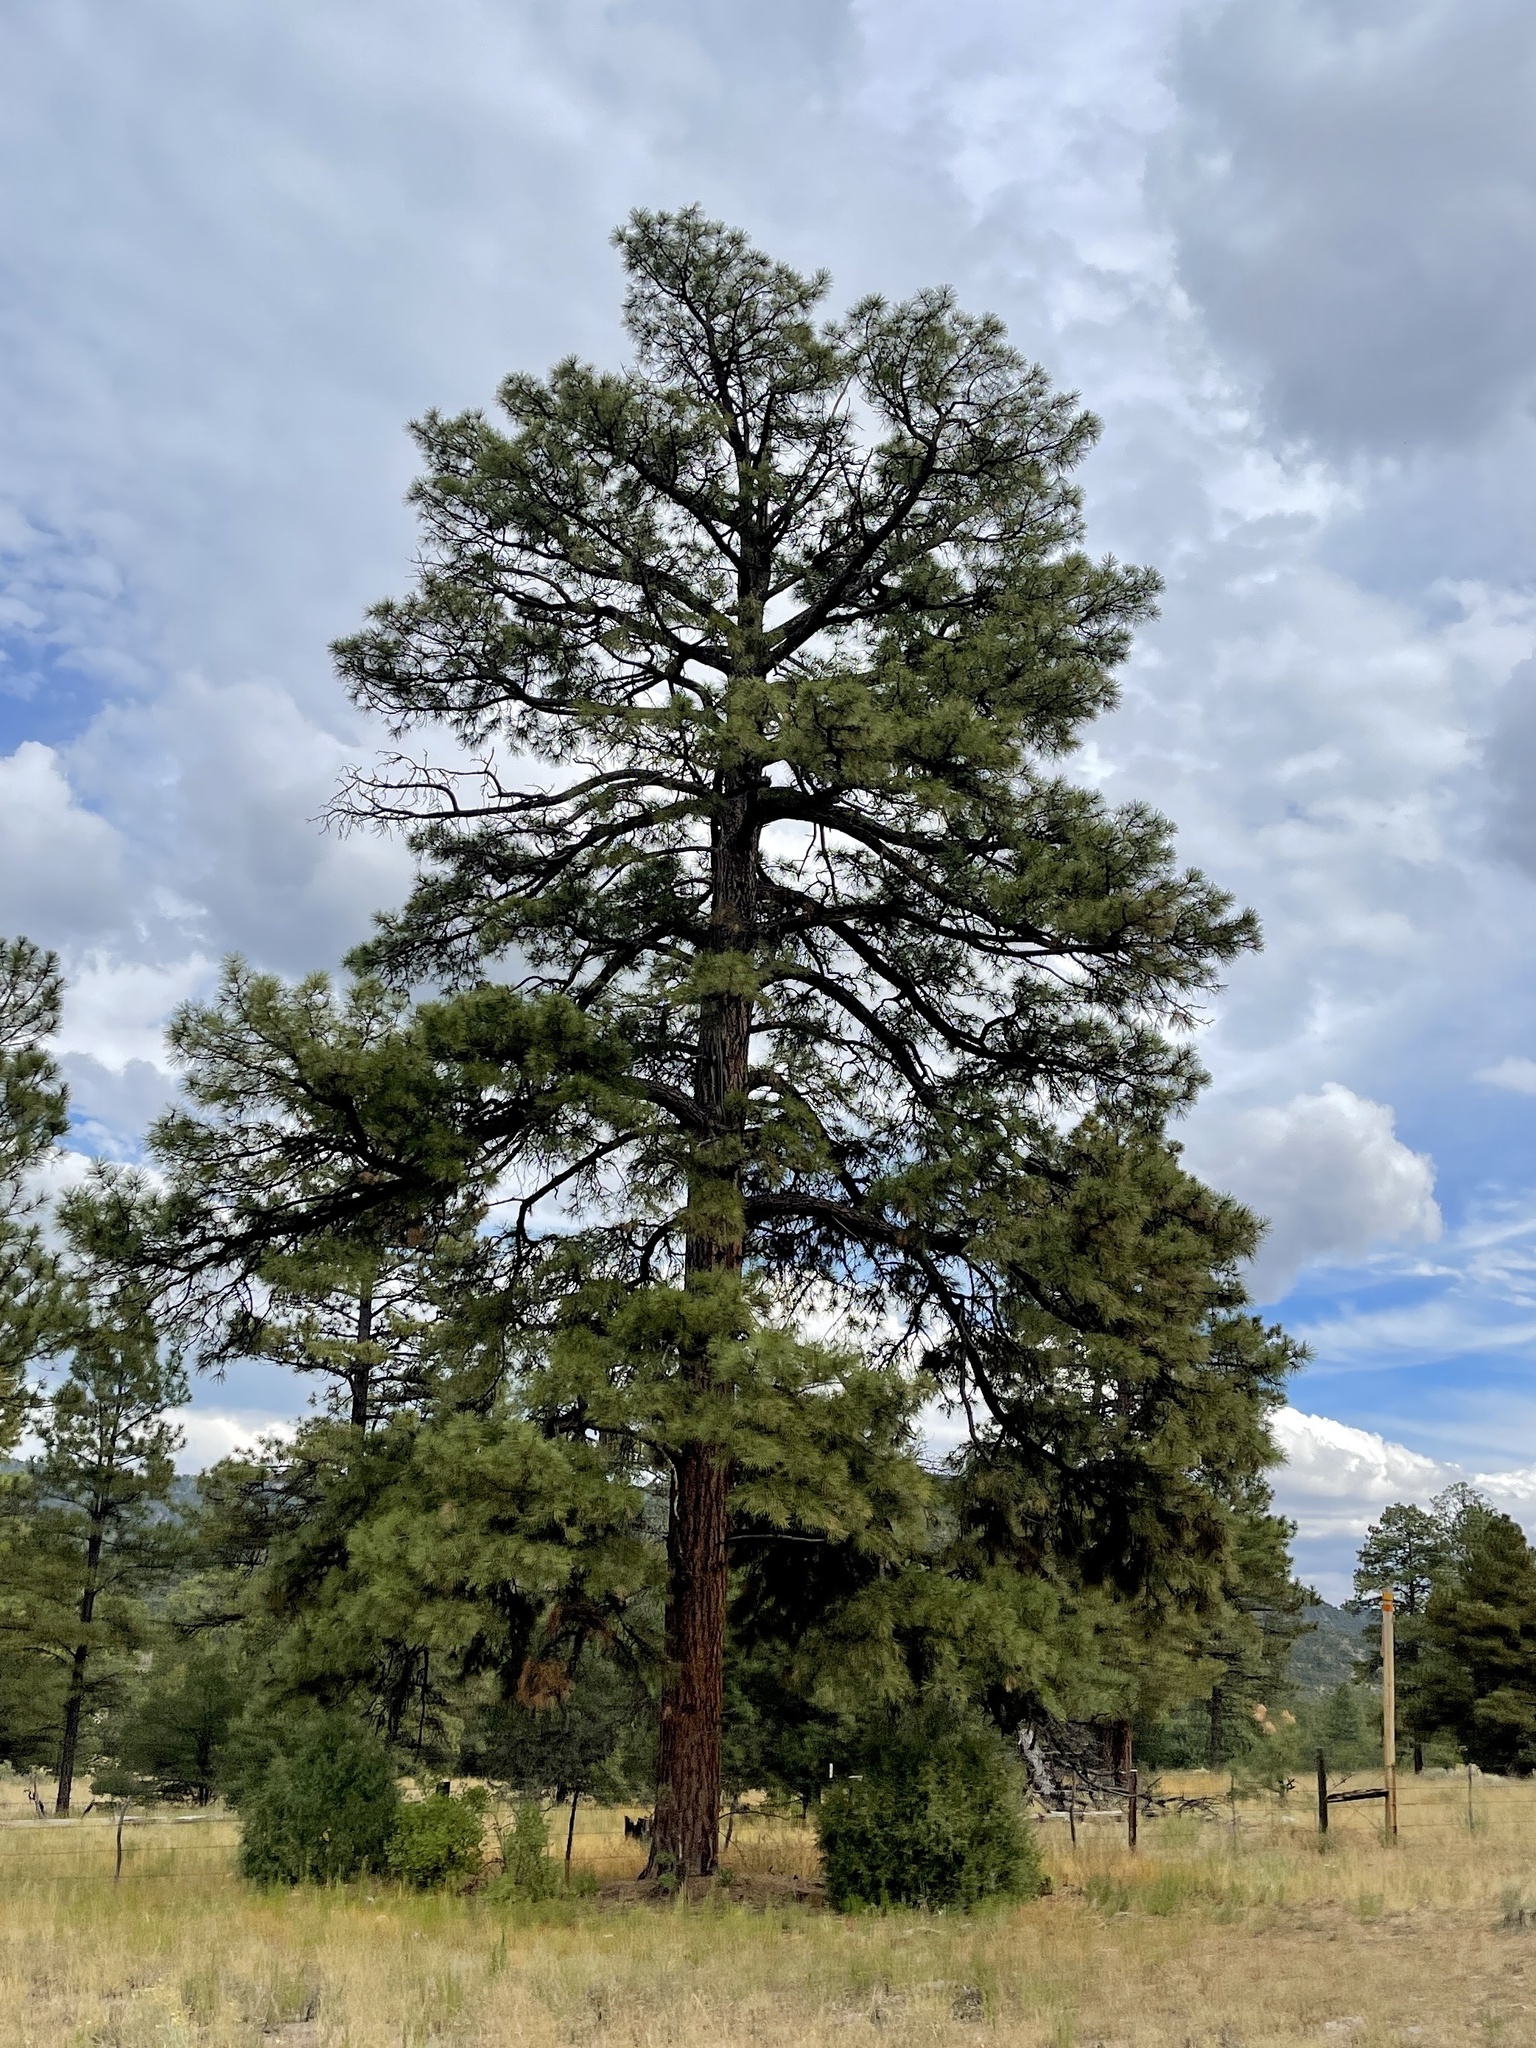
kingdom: Plantae
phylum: Tracheophyta
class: Pinopsida
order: Pinales
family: Pinaceae
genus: Pinus
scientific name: Pinus ponderosa
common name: Western yellow-pine
